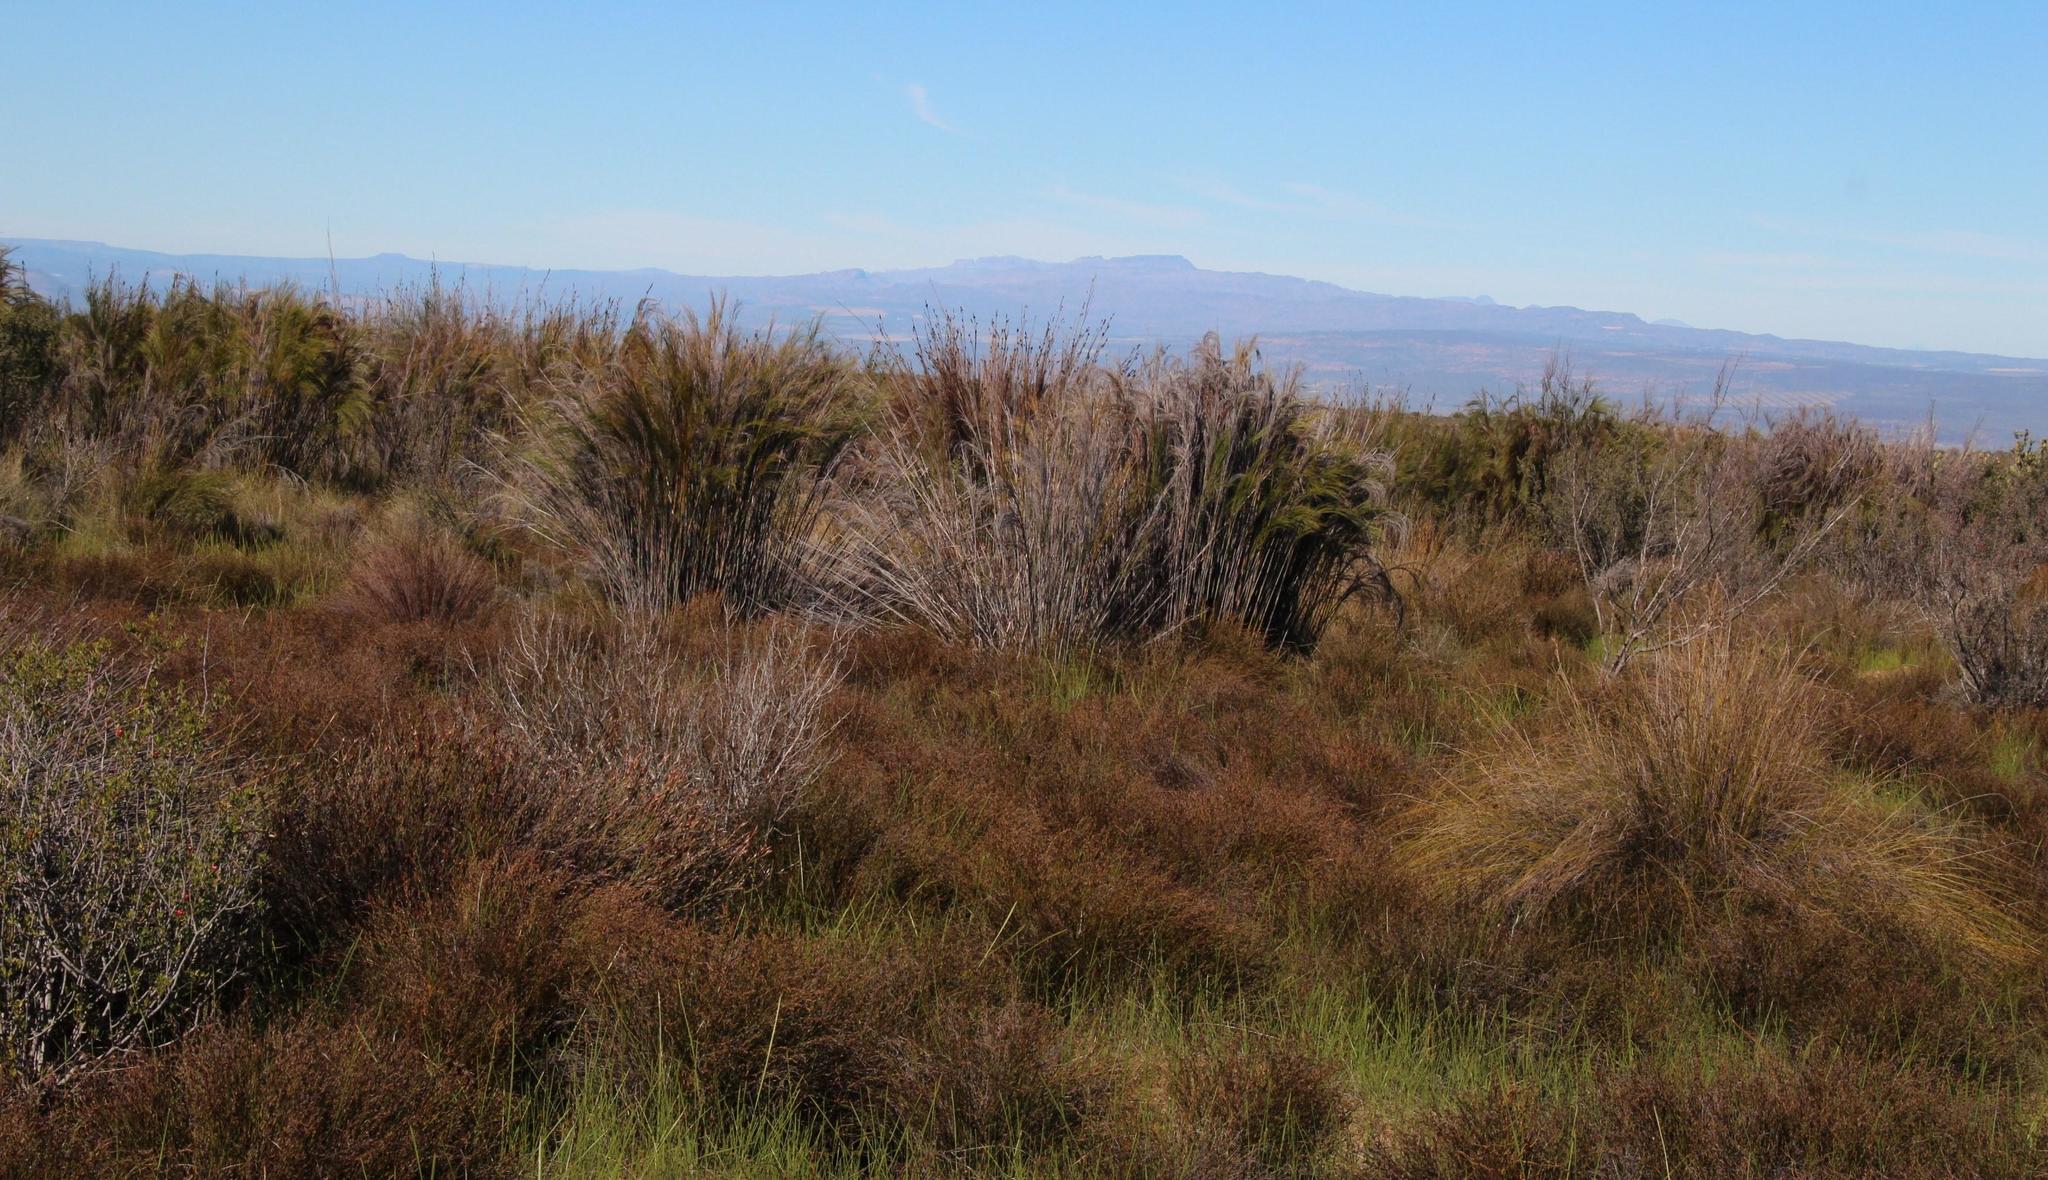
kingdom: Plantae
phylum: Tracheophyta
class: Liliopsida
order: Poales
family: Restionaceae
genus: Cannomois
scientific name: Cannomois robusta
